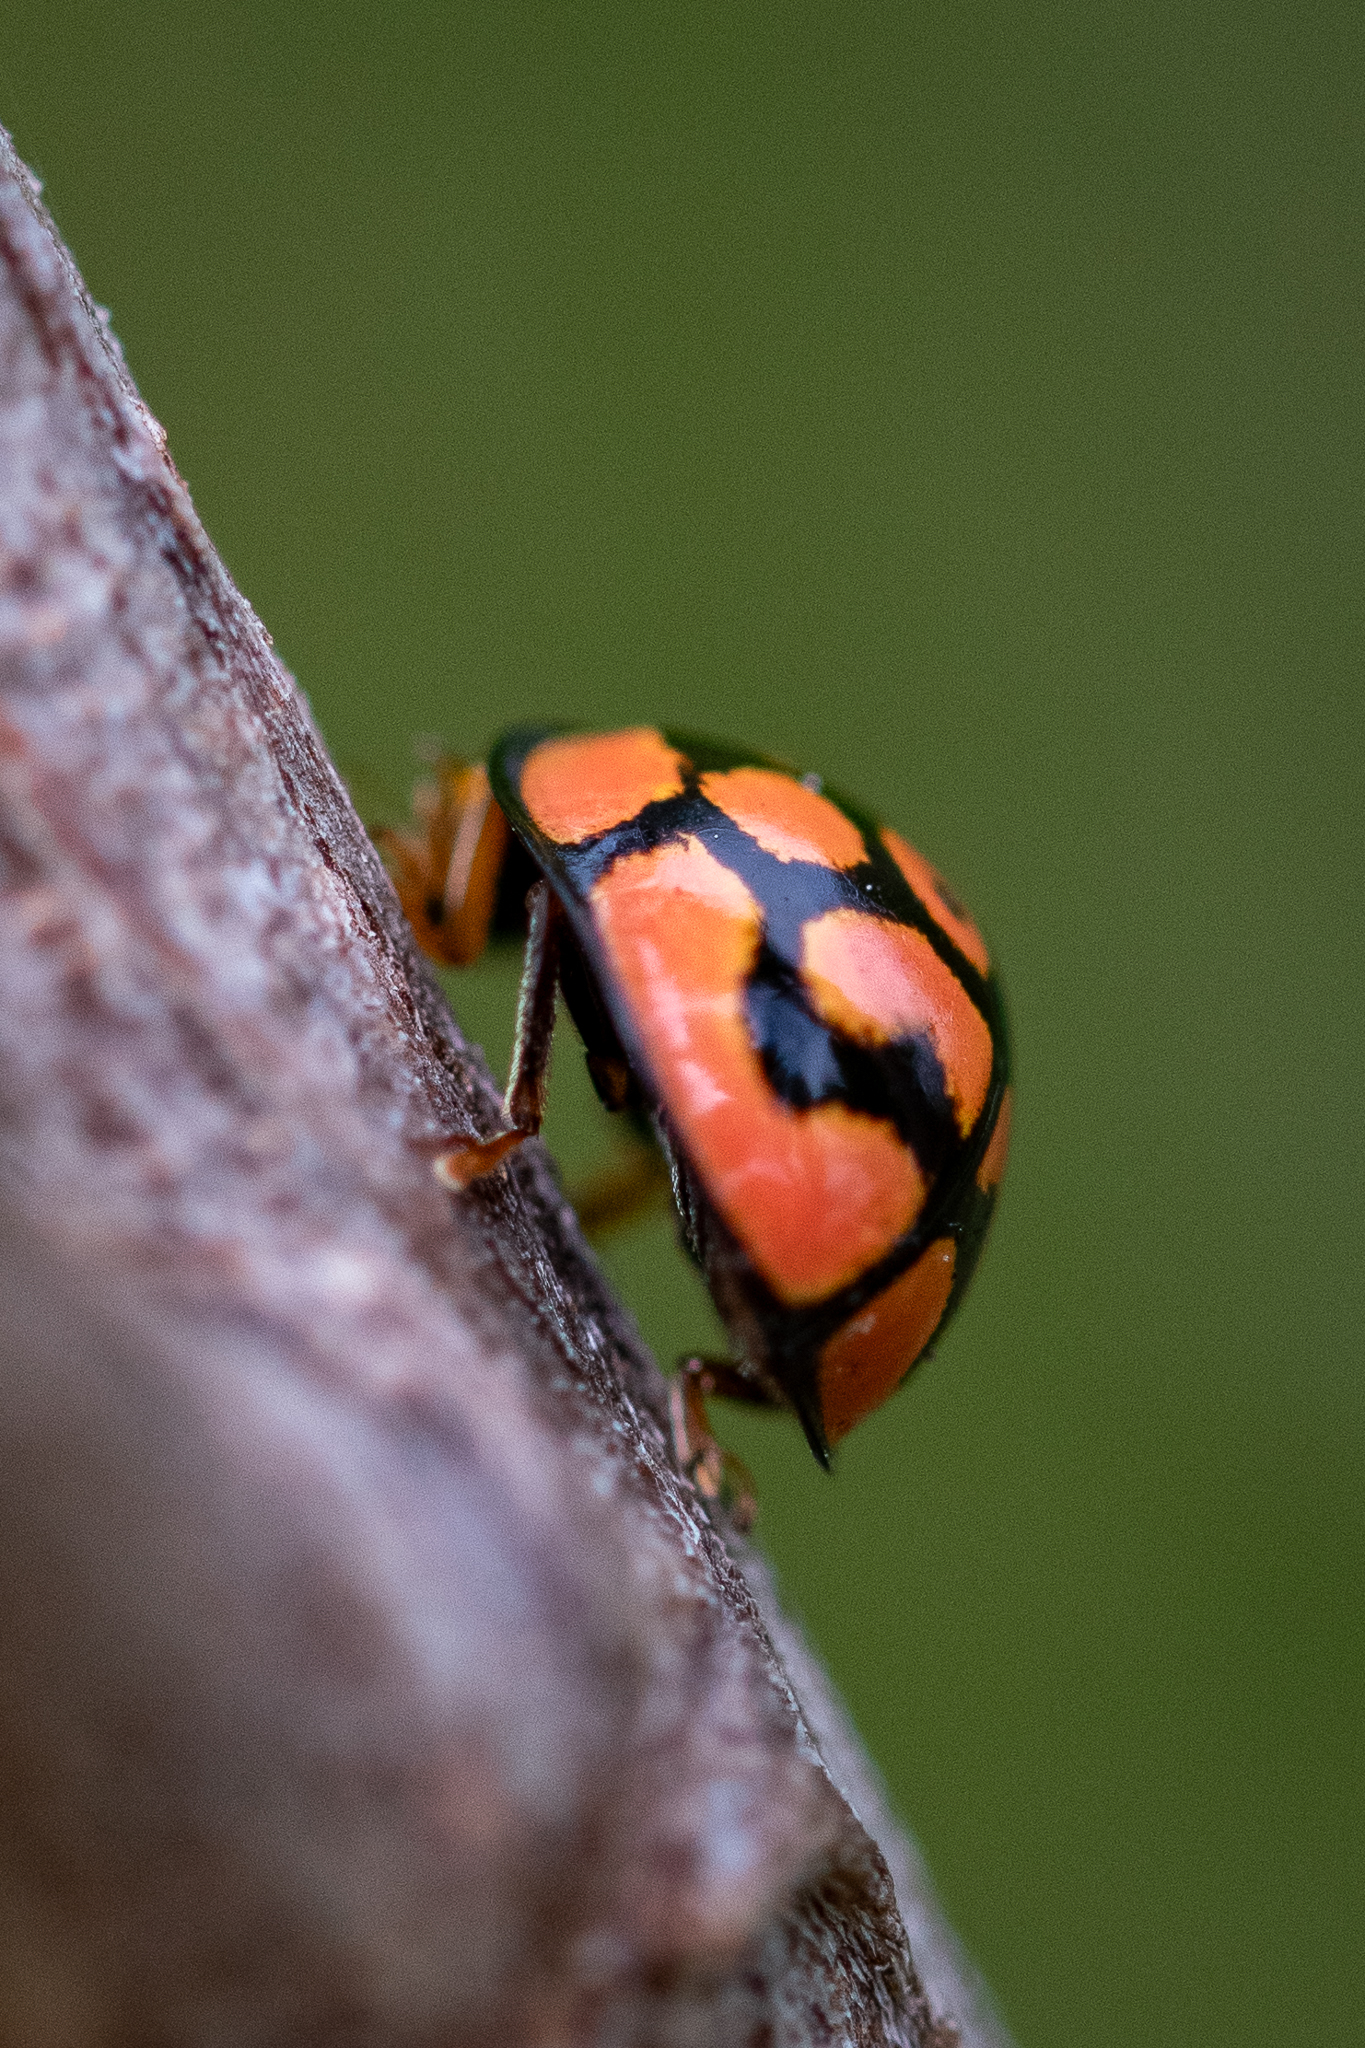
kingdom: Animalia
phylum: Arthropoda
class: Insecta
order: Coleoptera
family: Coccinellidae
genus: Cheilomenes
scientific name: Cheilomenes lunata
